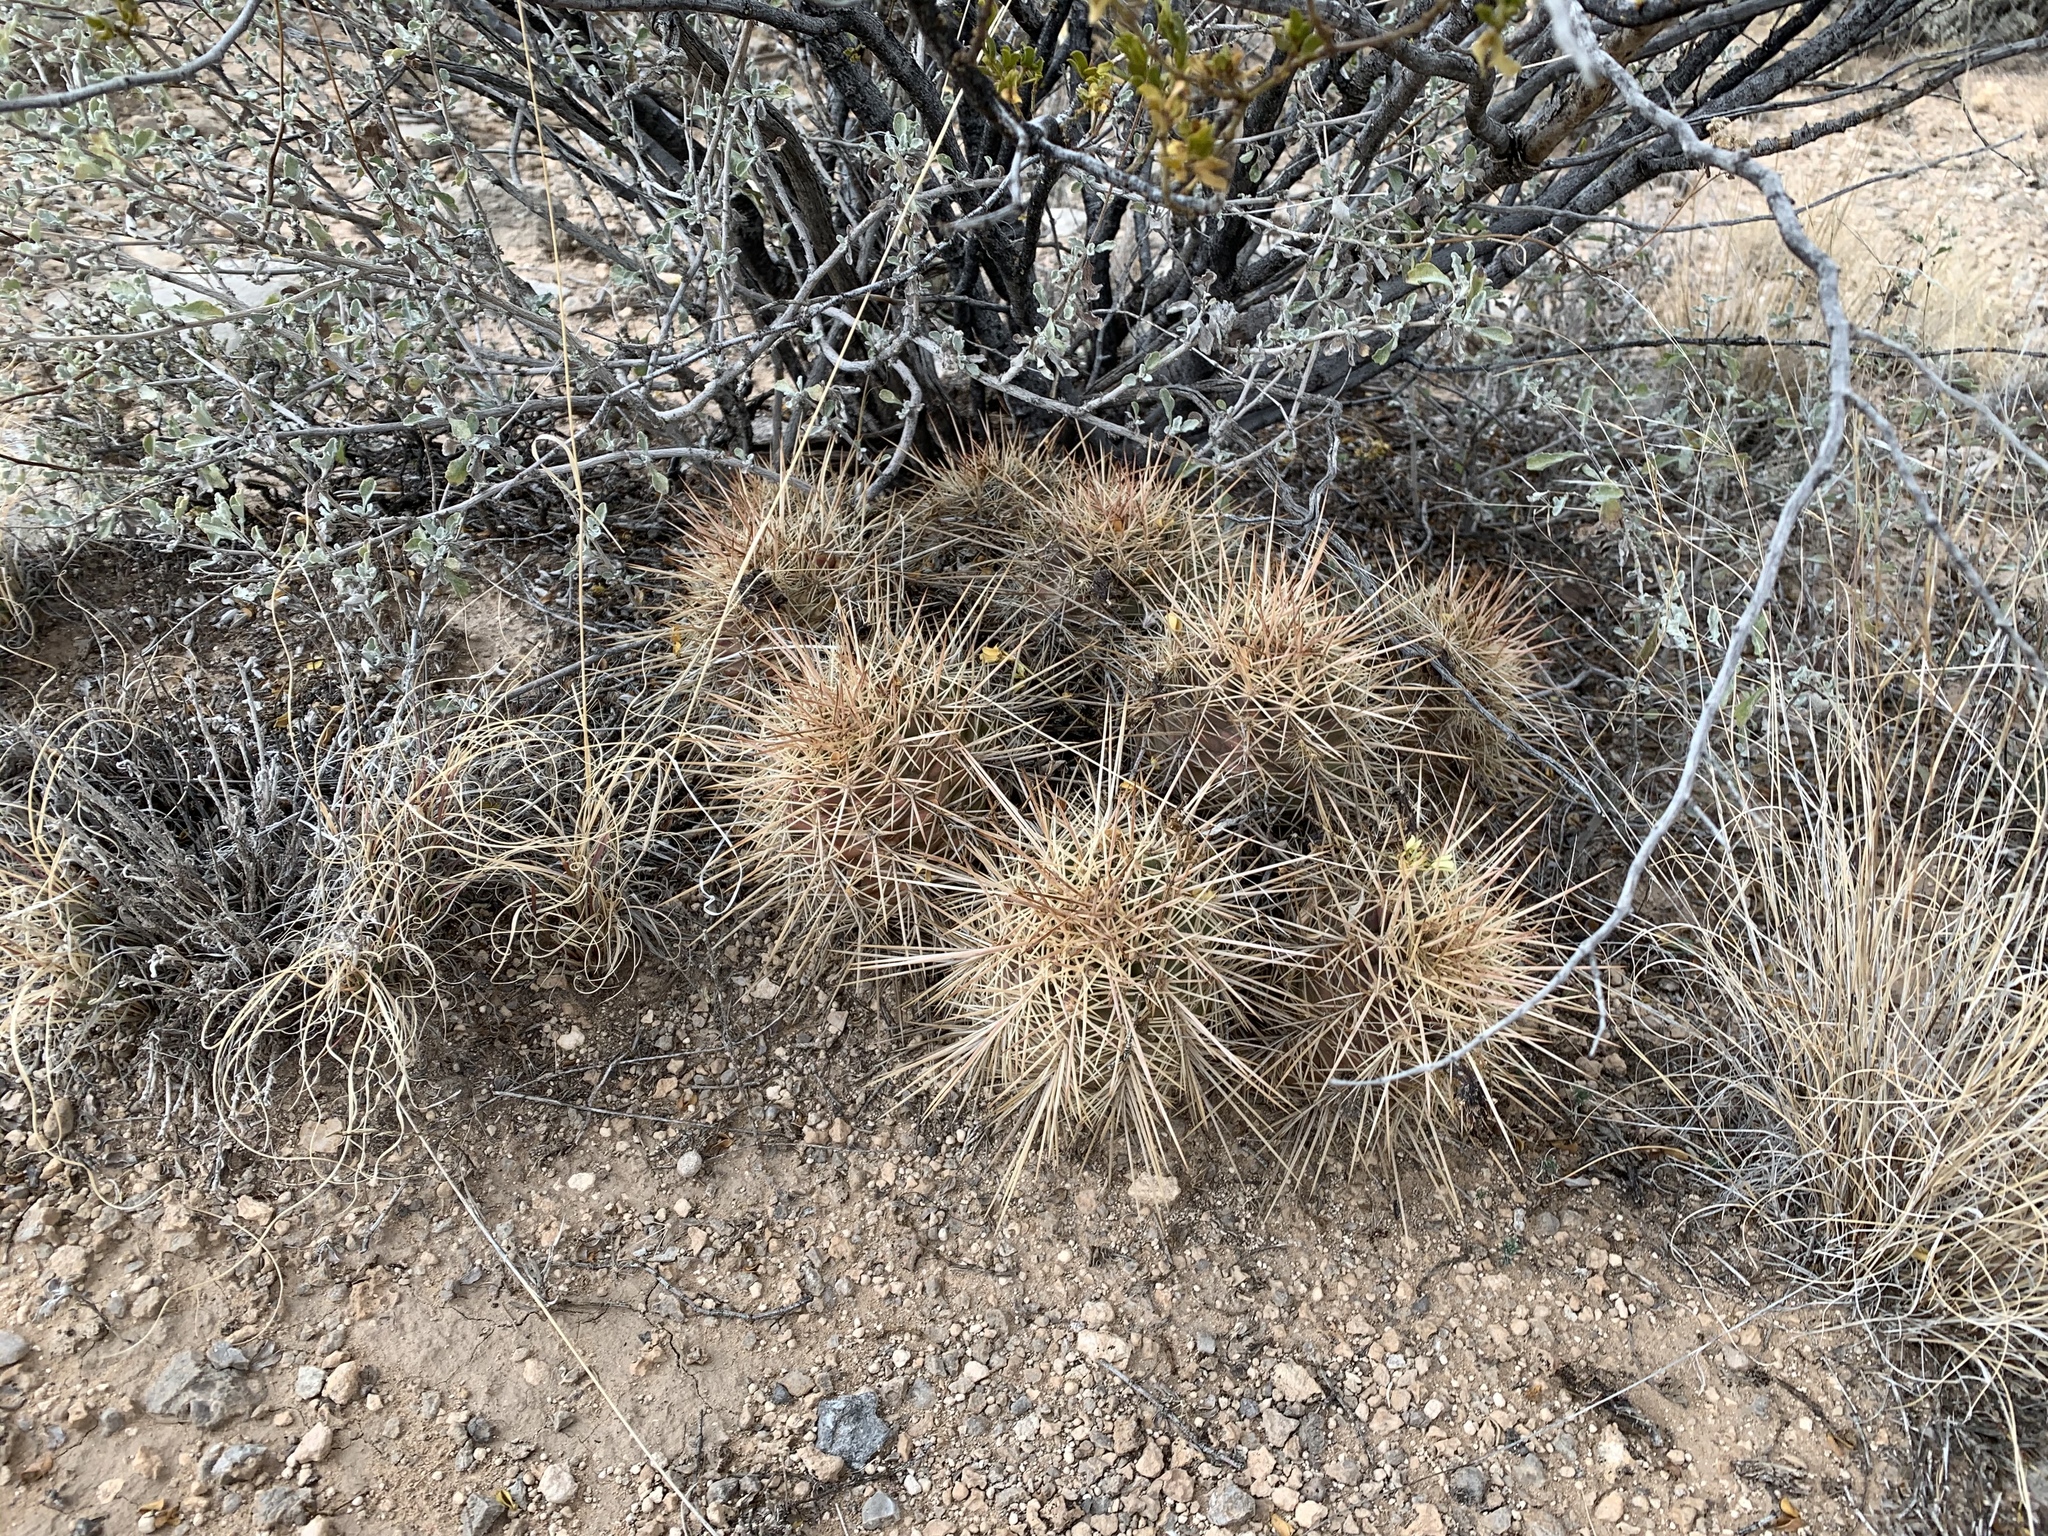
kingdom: Plantae
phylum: Tracheophyta
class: Magnoliopsida
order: Caryophyllales
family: Cactaceae
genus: Echinocereus
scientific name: Echinocereus coccineus
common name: Scarlet hedgehog cactus
